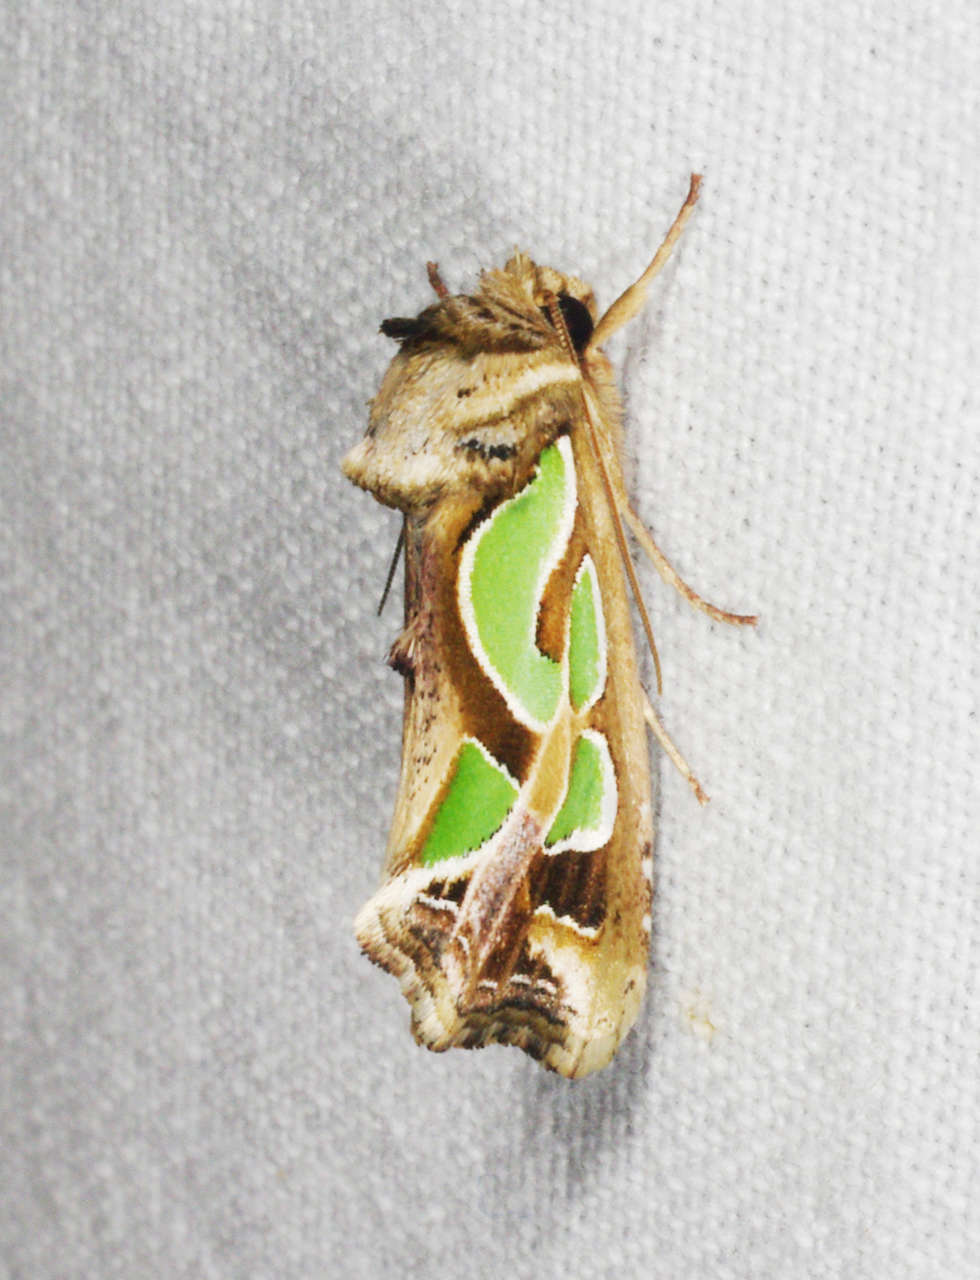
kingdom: Animalia
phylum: Arthropoda
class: Insecta
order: Lepidoptera
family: Noctuidae
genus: Cosmodes
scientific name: Cosmodes elegans
